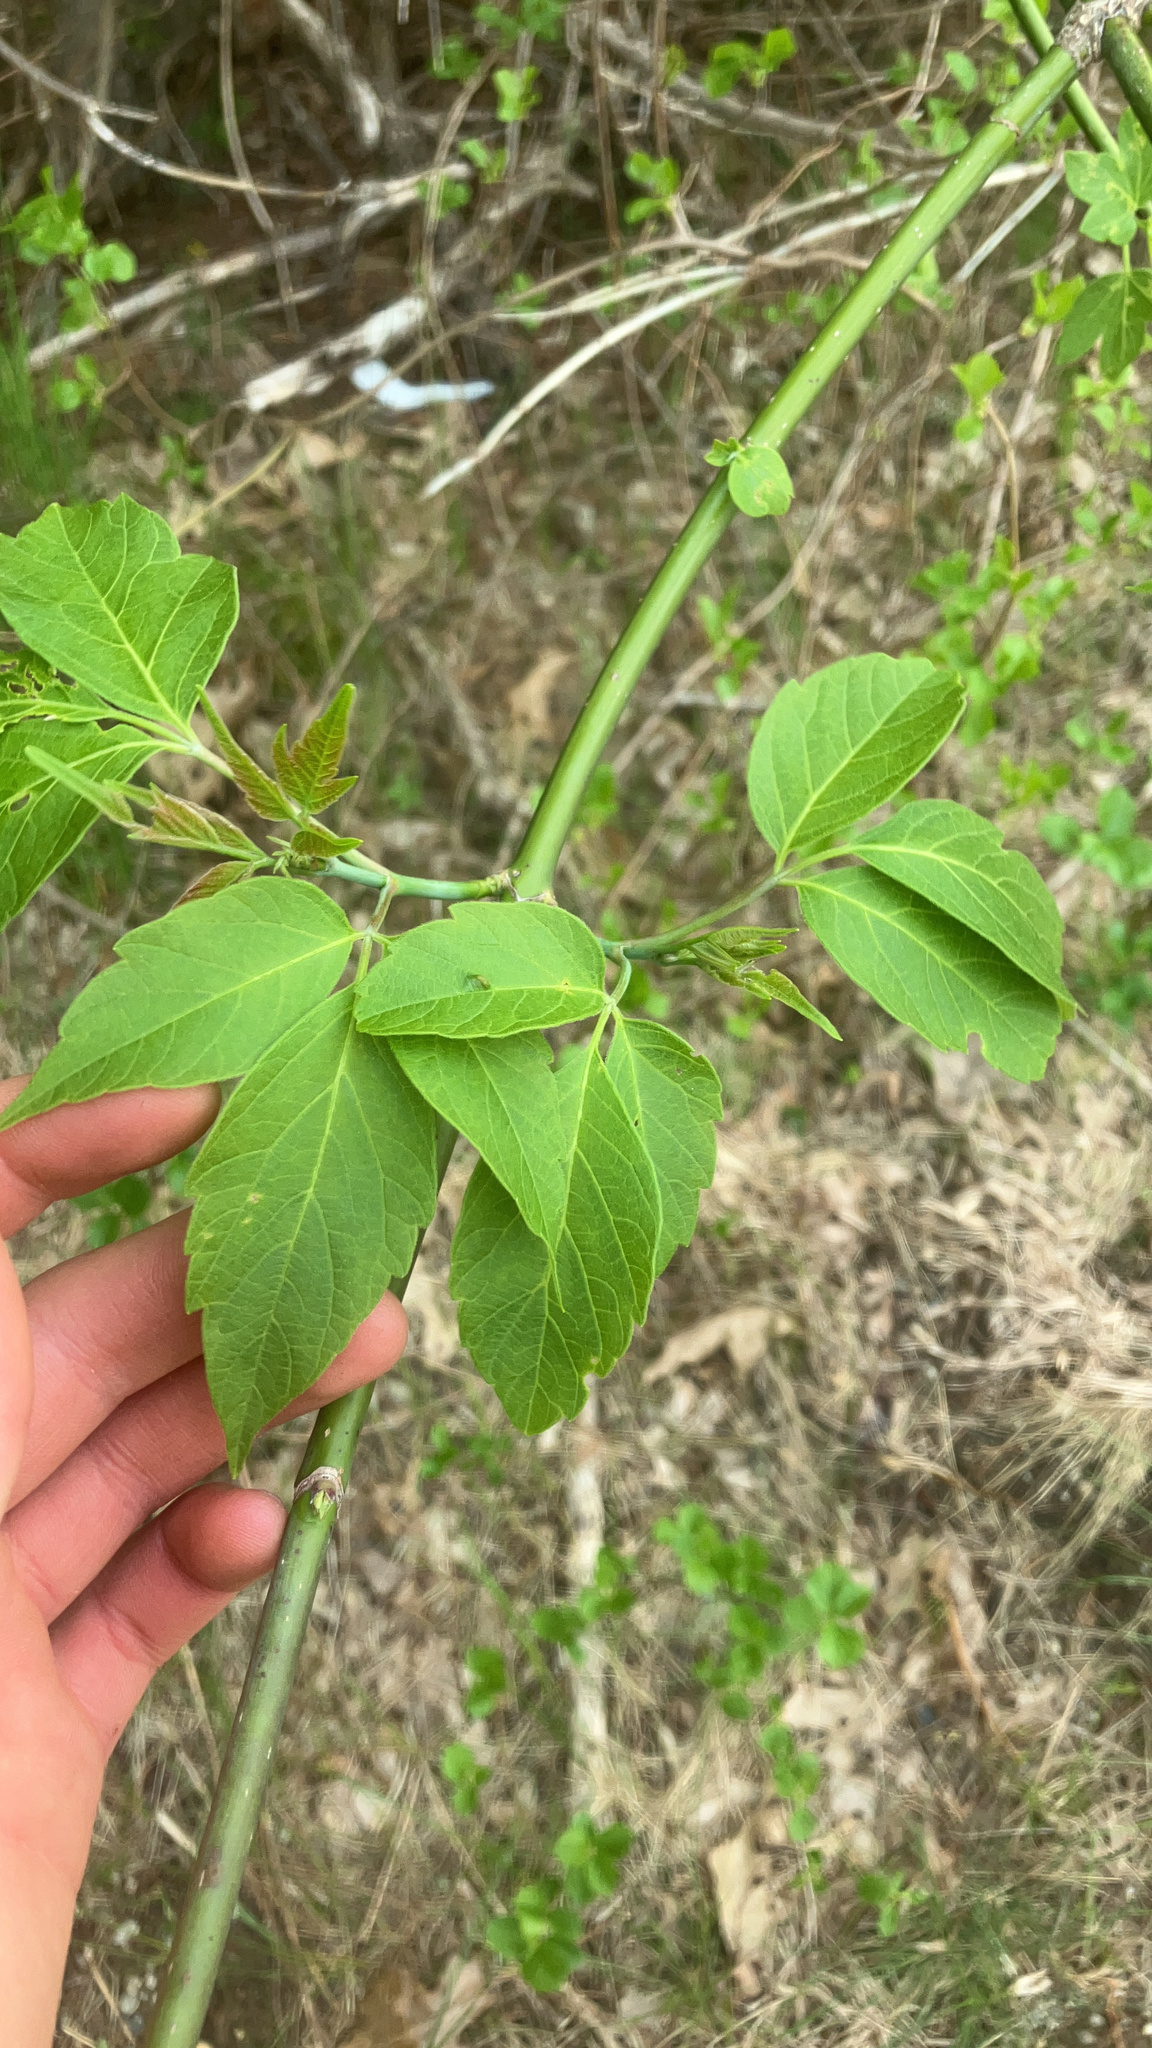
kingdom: Plantae
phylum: Tracheophyta
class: Magnoliopsida
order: Sapindales
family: Sapindaceae
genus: Acer
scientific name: Acer negundo
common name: Ashleaf maple
